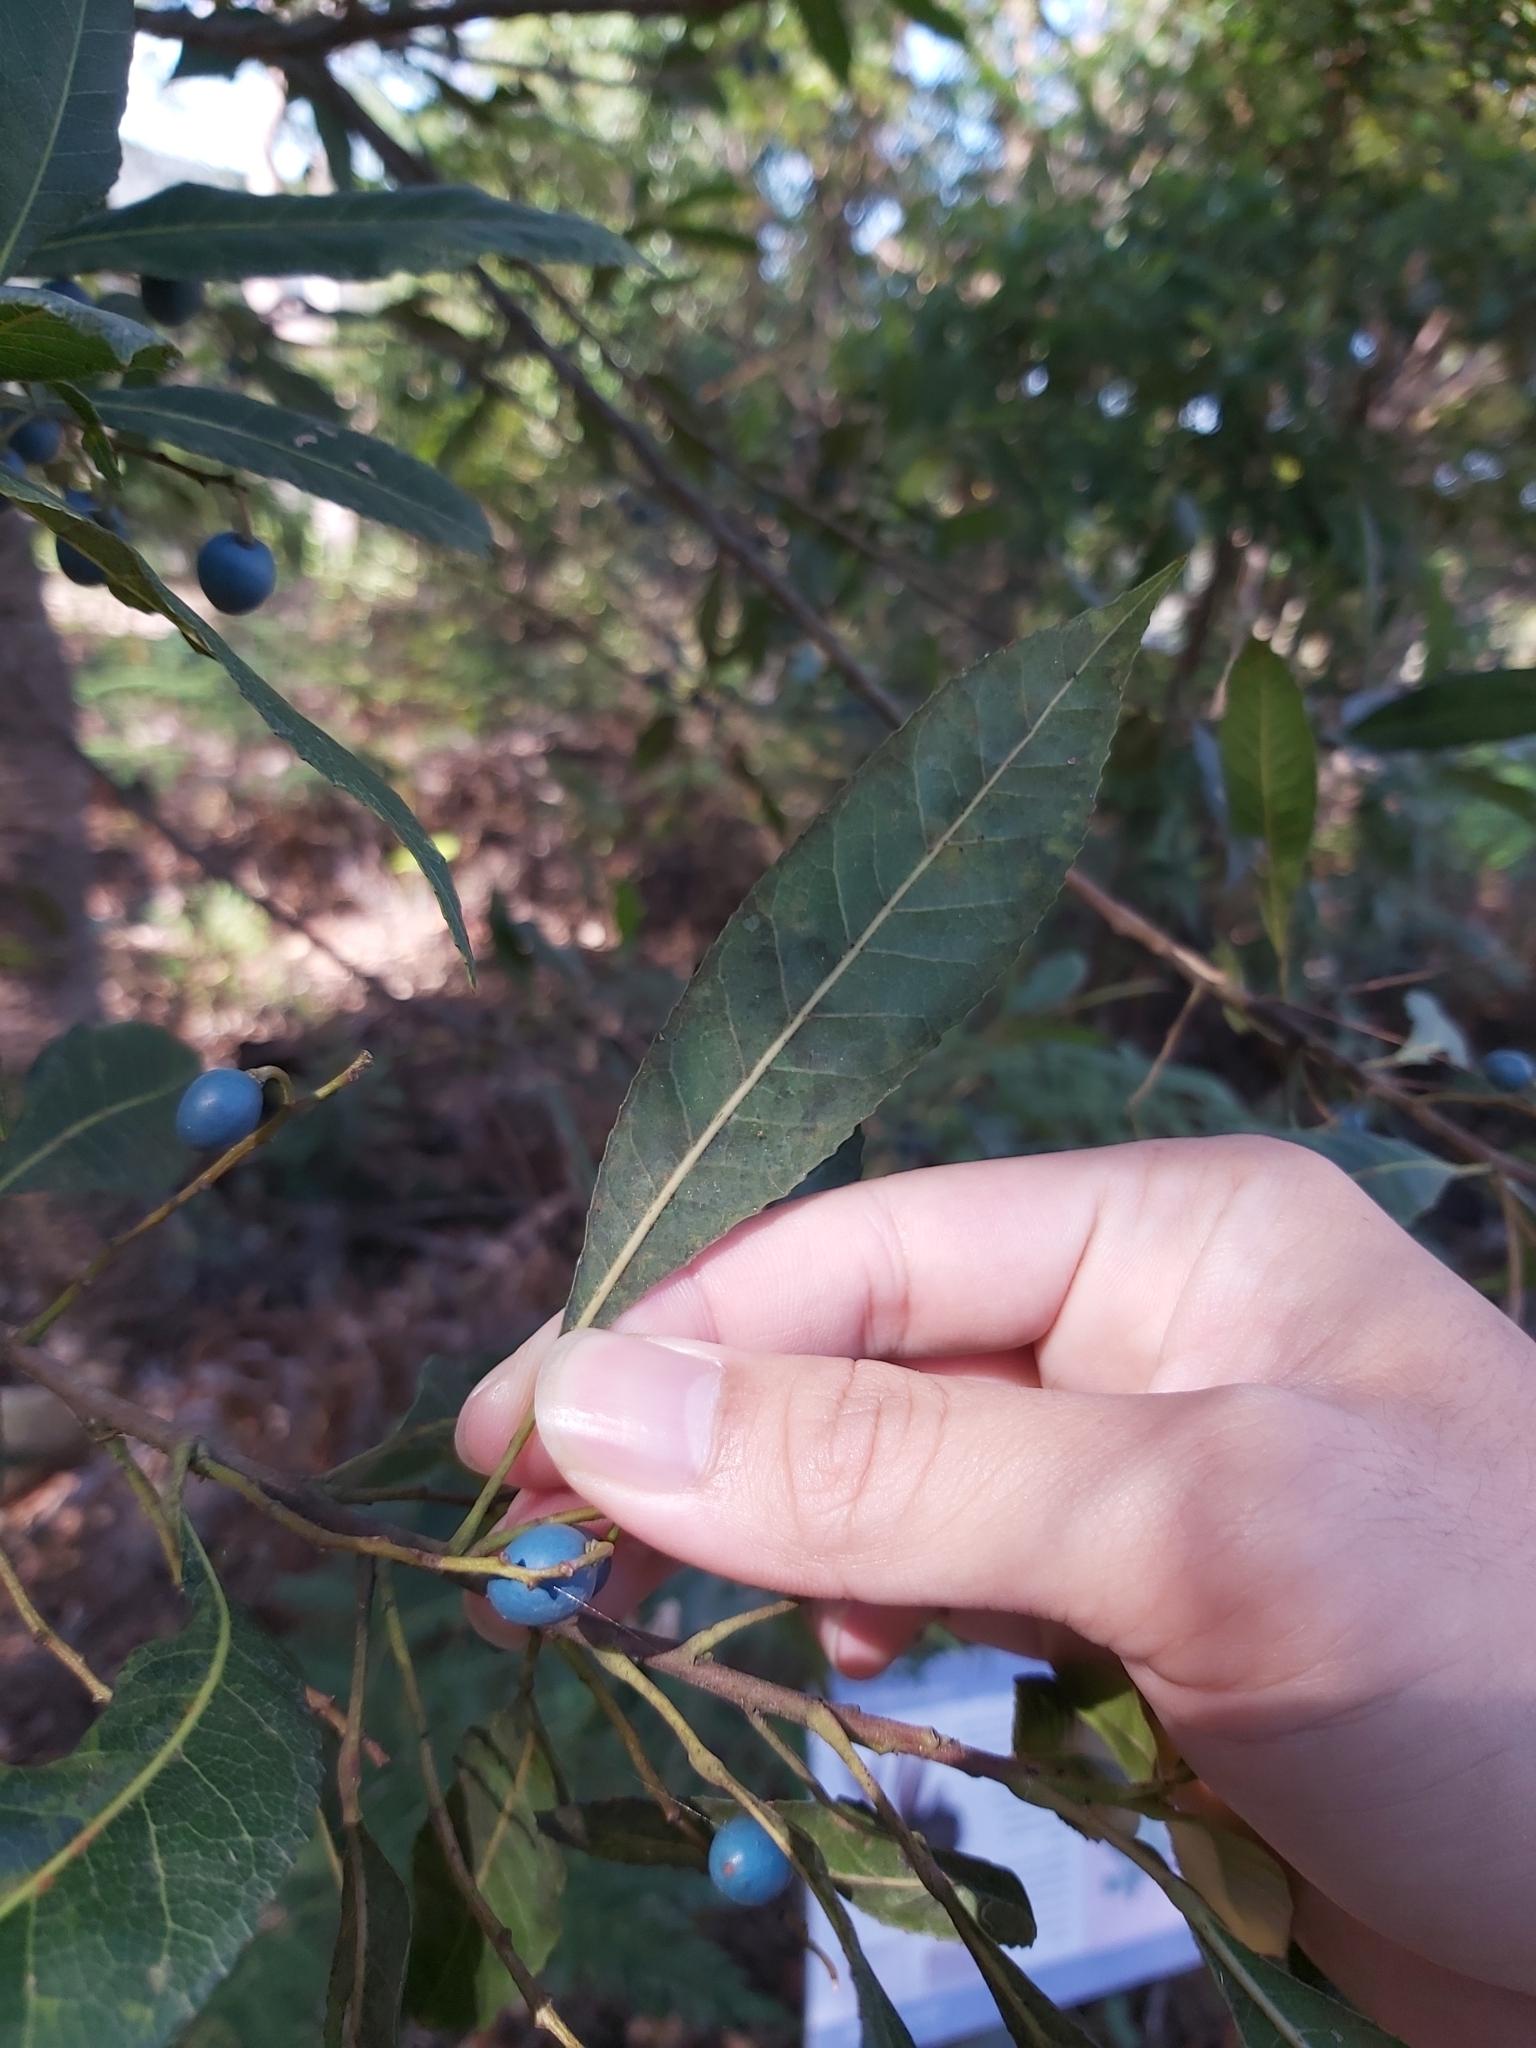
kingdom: Plantae
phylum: Tracheophyta
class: Magnoliopsida
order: Oxalidales
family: Elaeocarpaceae
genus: Elaeocarpus
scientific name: Elaeocarpus reticulatus
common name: Ash quandong
